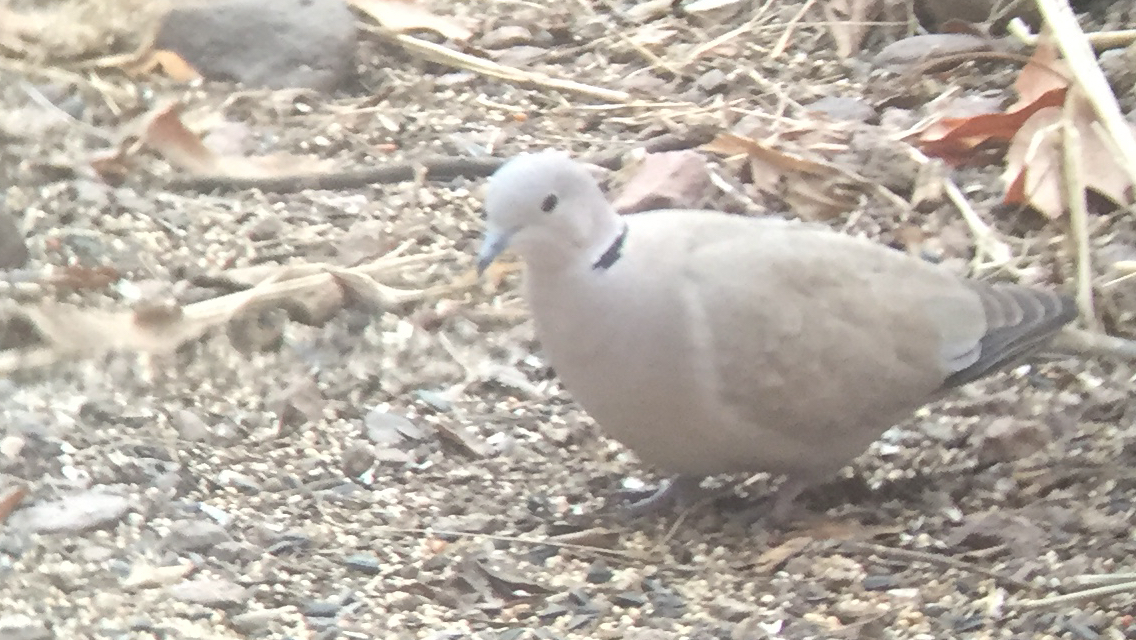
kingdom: Animalia
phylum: Chordata
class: Aves
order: Columbiformes
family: Columbidae
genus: Streptopelia
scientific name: Streptopelia decaocto
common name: Eurasian collared dove
